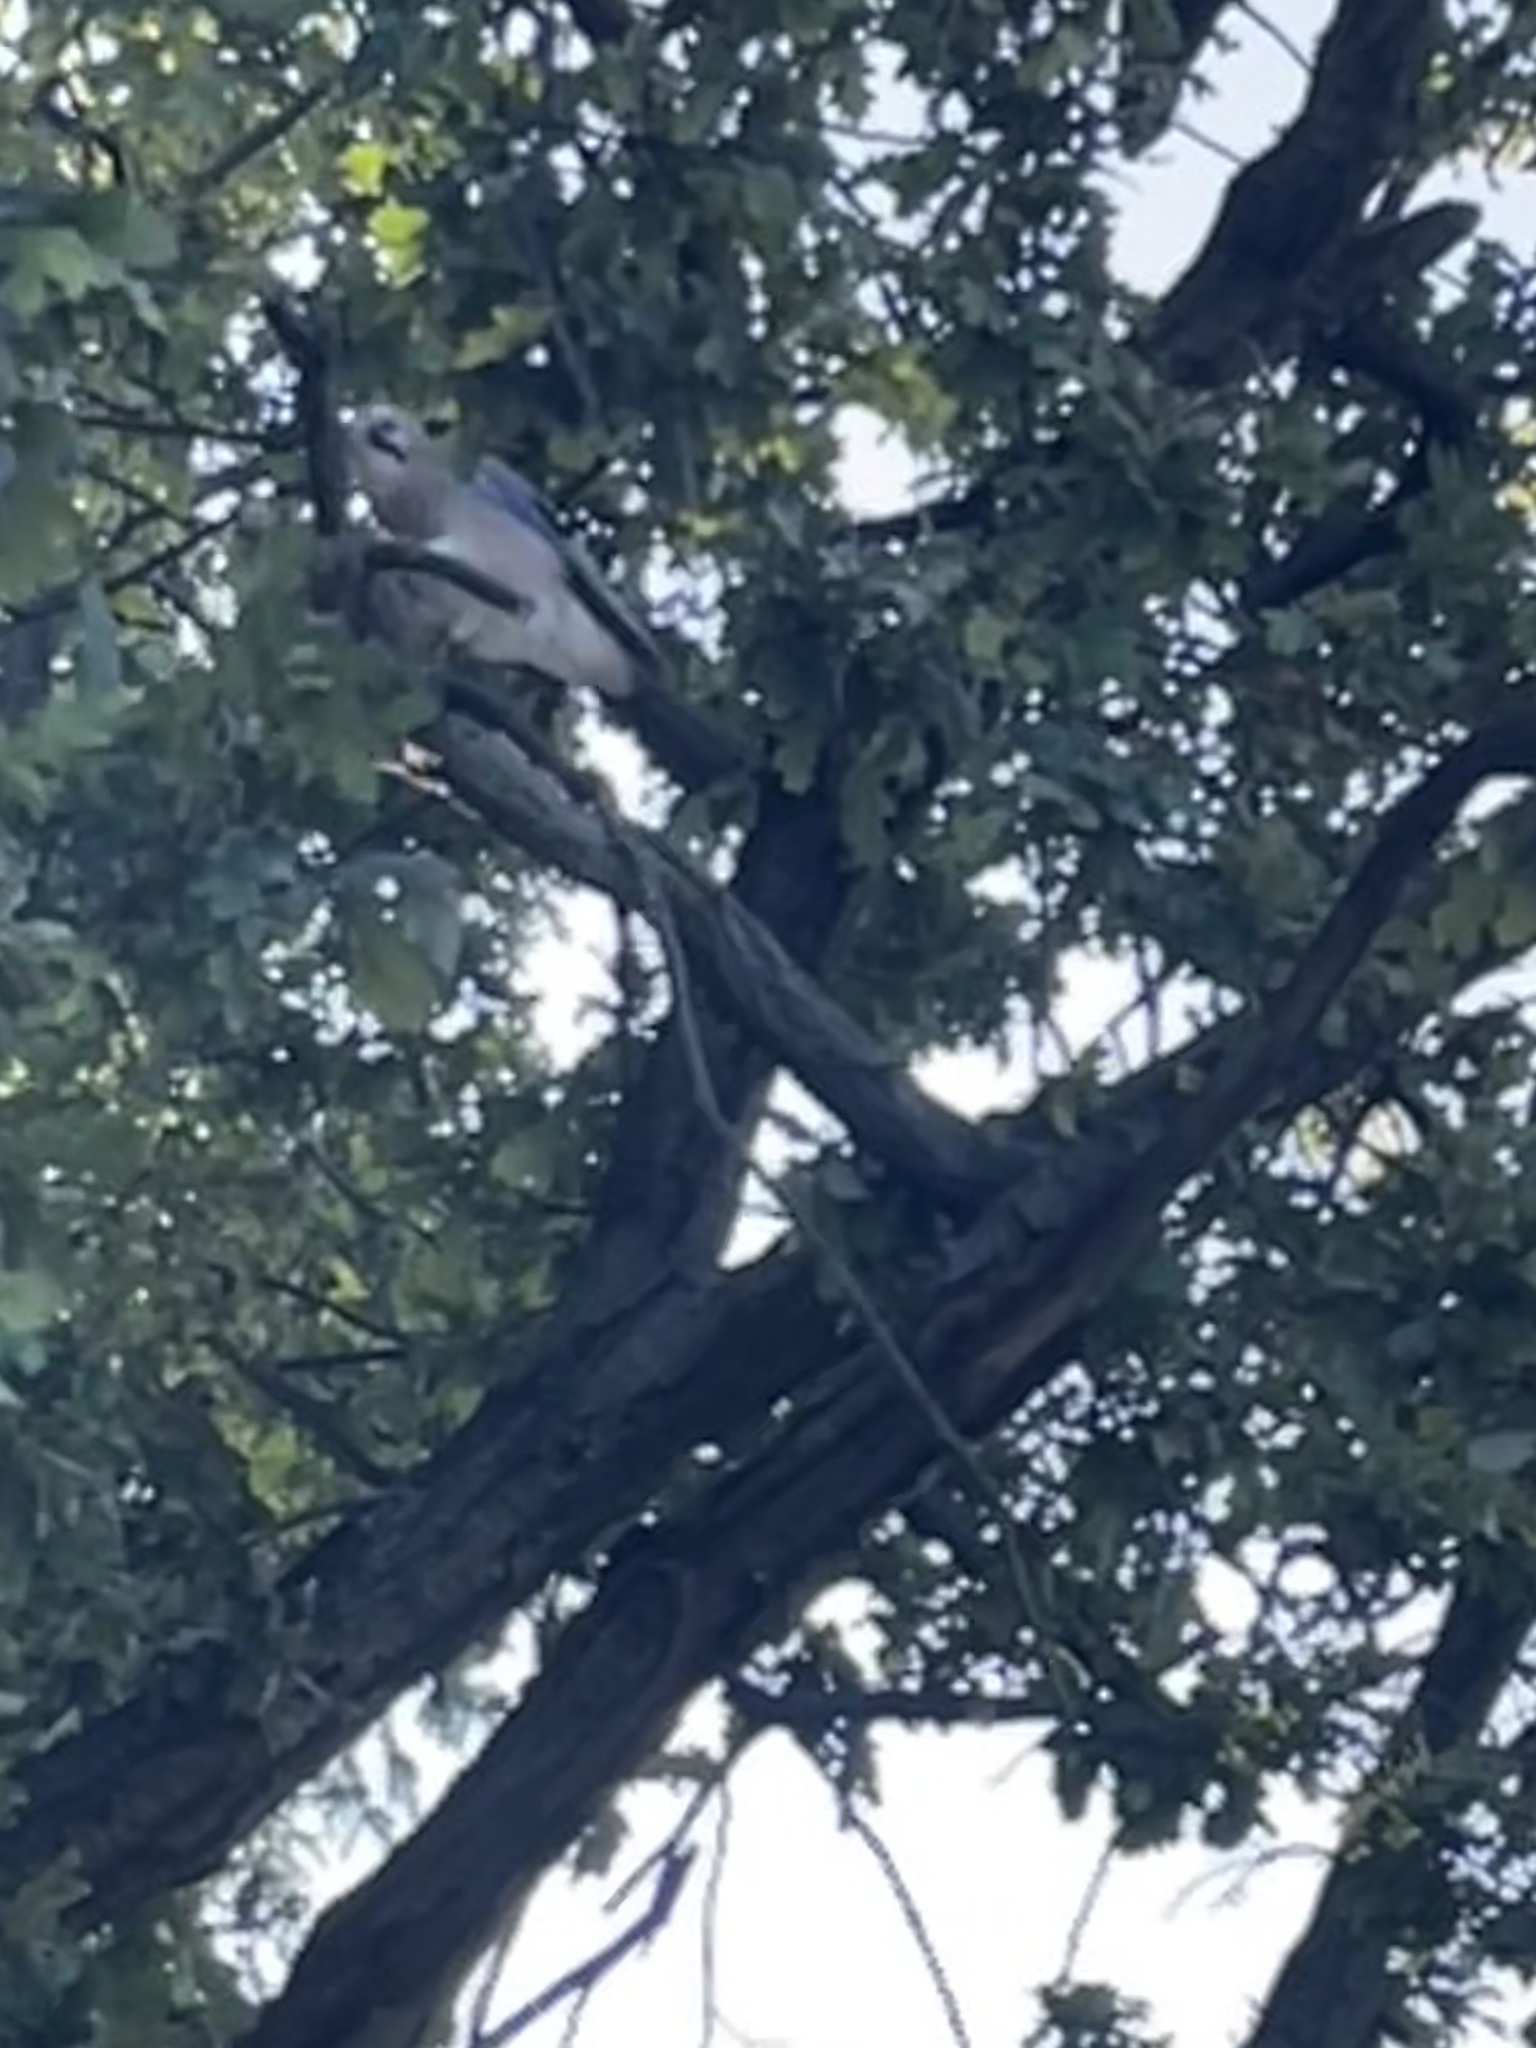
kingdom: Animalia
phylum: Chordata
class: Aves
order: Passeriformes
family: Corvidae
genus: Garrulus
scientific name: Garrulus glandarius
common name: Eurasian jay
